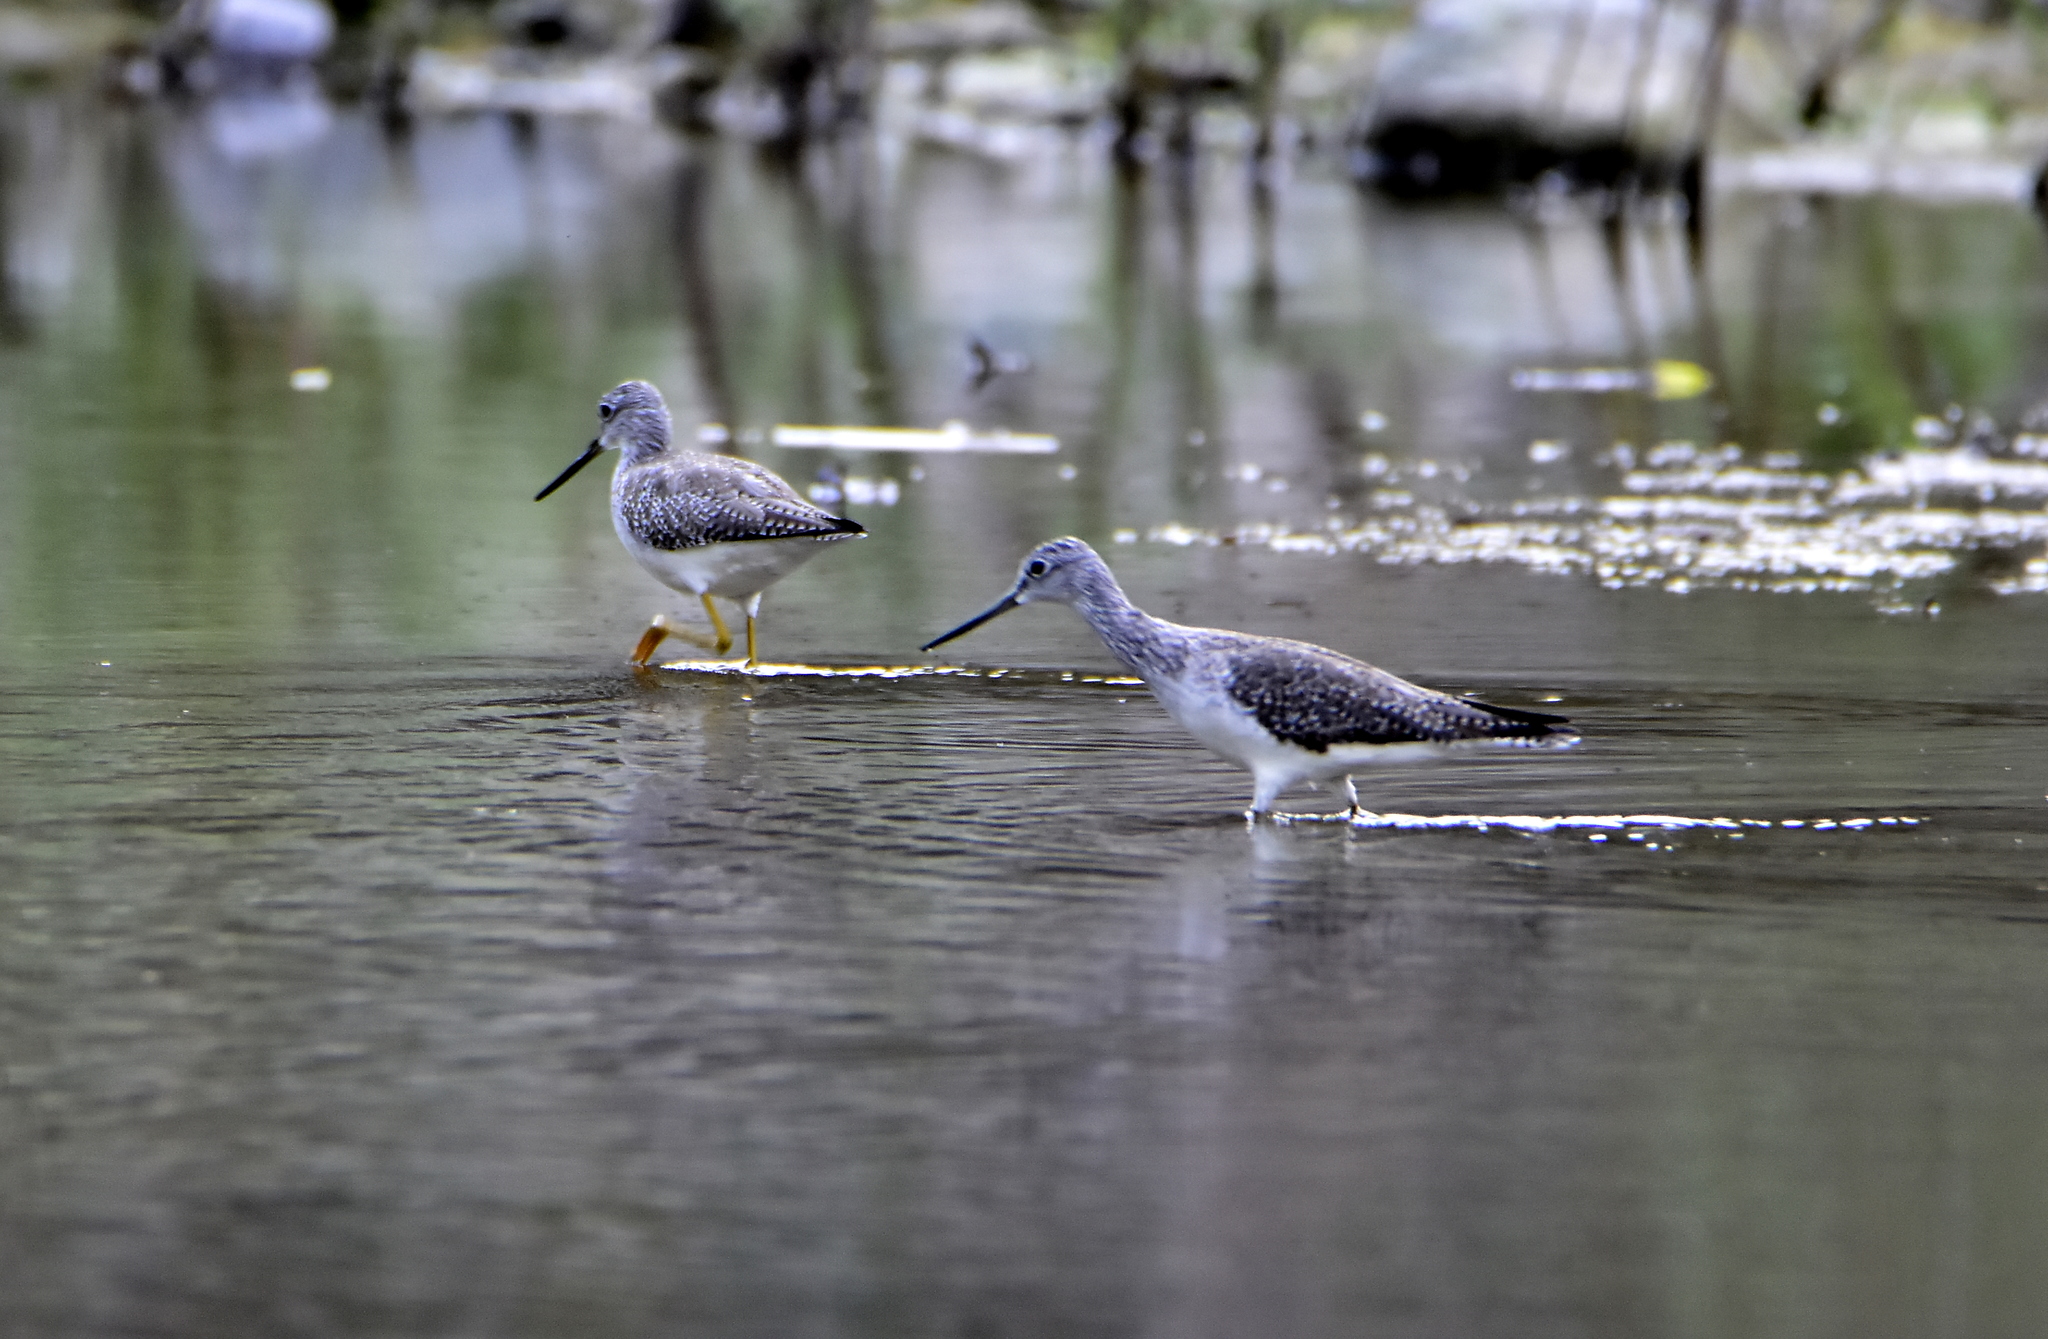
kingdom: Animalia
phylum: Chordata
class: Aves
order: Charadriiformes
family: Scolopacidae
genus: Tringa
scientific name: Tringa melanoleuca
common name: Greater yellowlegs
